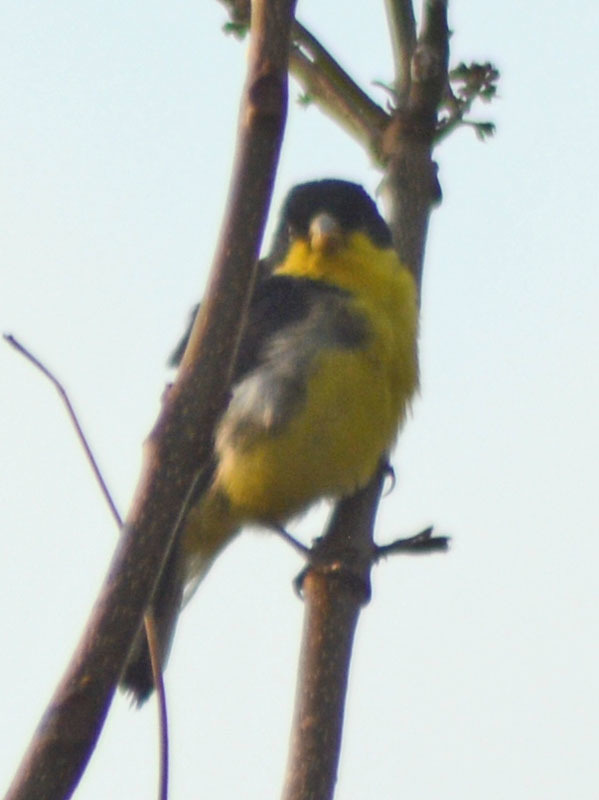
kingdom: Animalia
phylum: Chordata
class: Aves
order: Passeriformes
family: Fringillidae
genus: Spinus
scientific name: Spinus psaltria
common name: Lesser goldfinch
